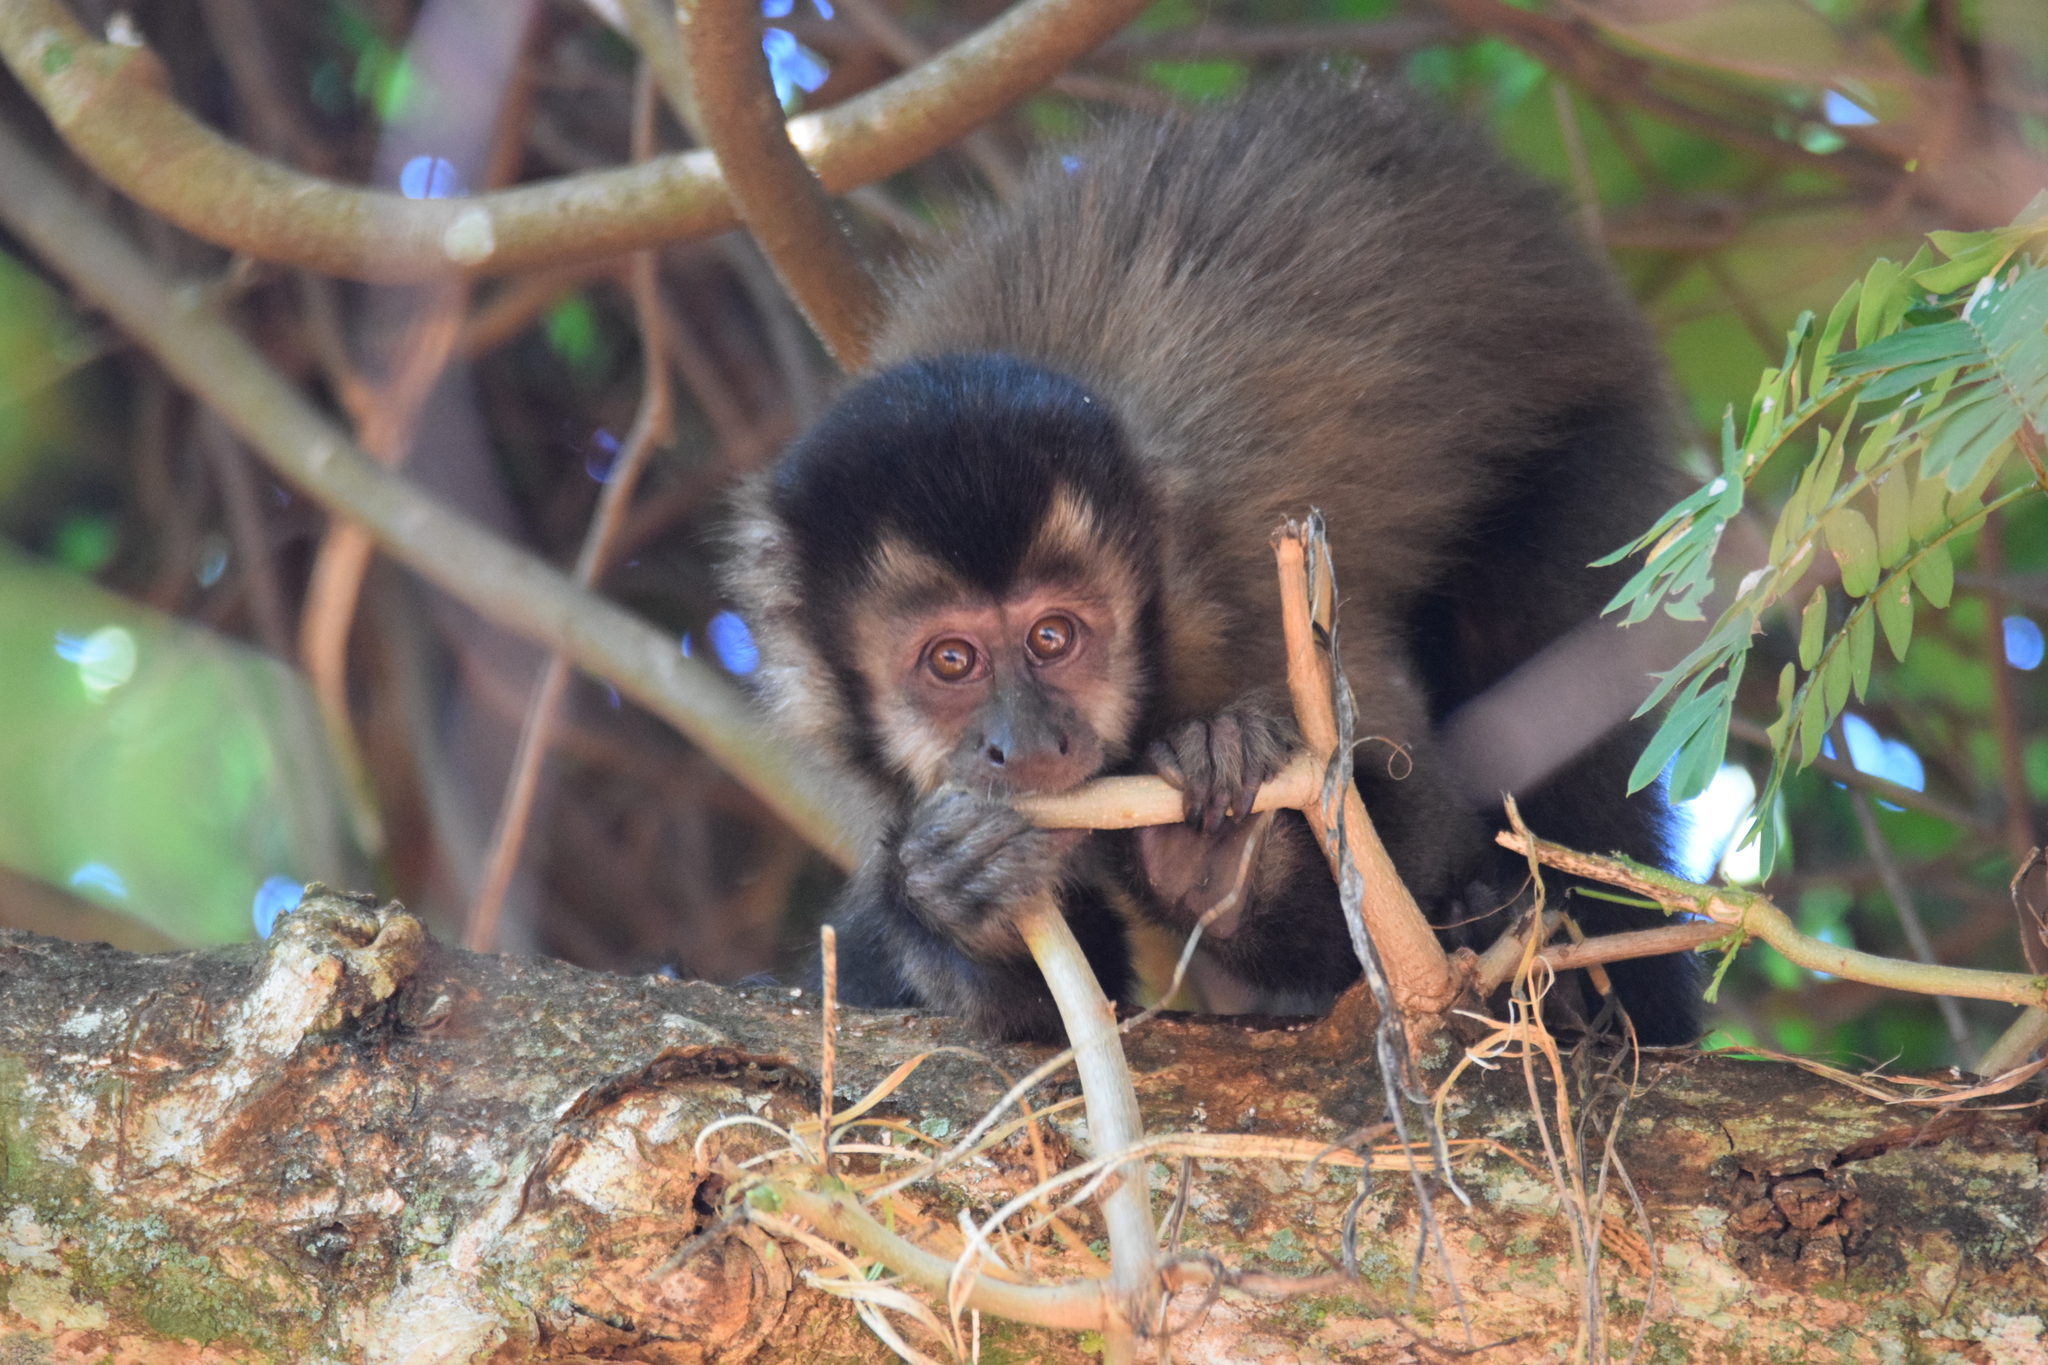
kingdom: Animalia
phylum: Chordata
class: Mammalia
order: Primates
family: Cebidae
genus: Sapajus
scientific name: Sapajus nigritus
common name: Black capuchin
